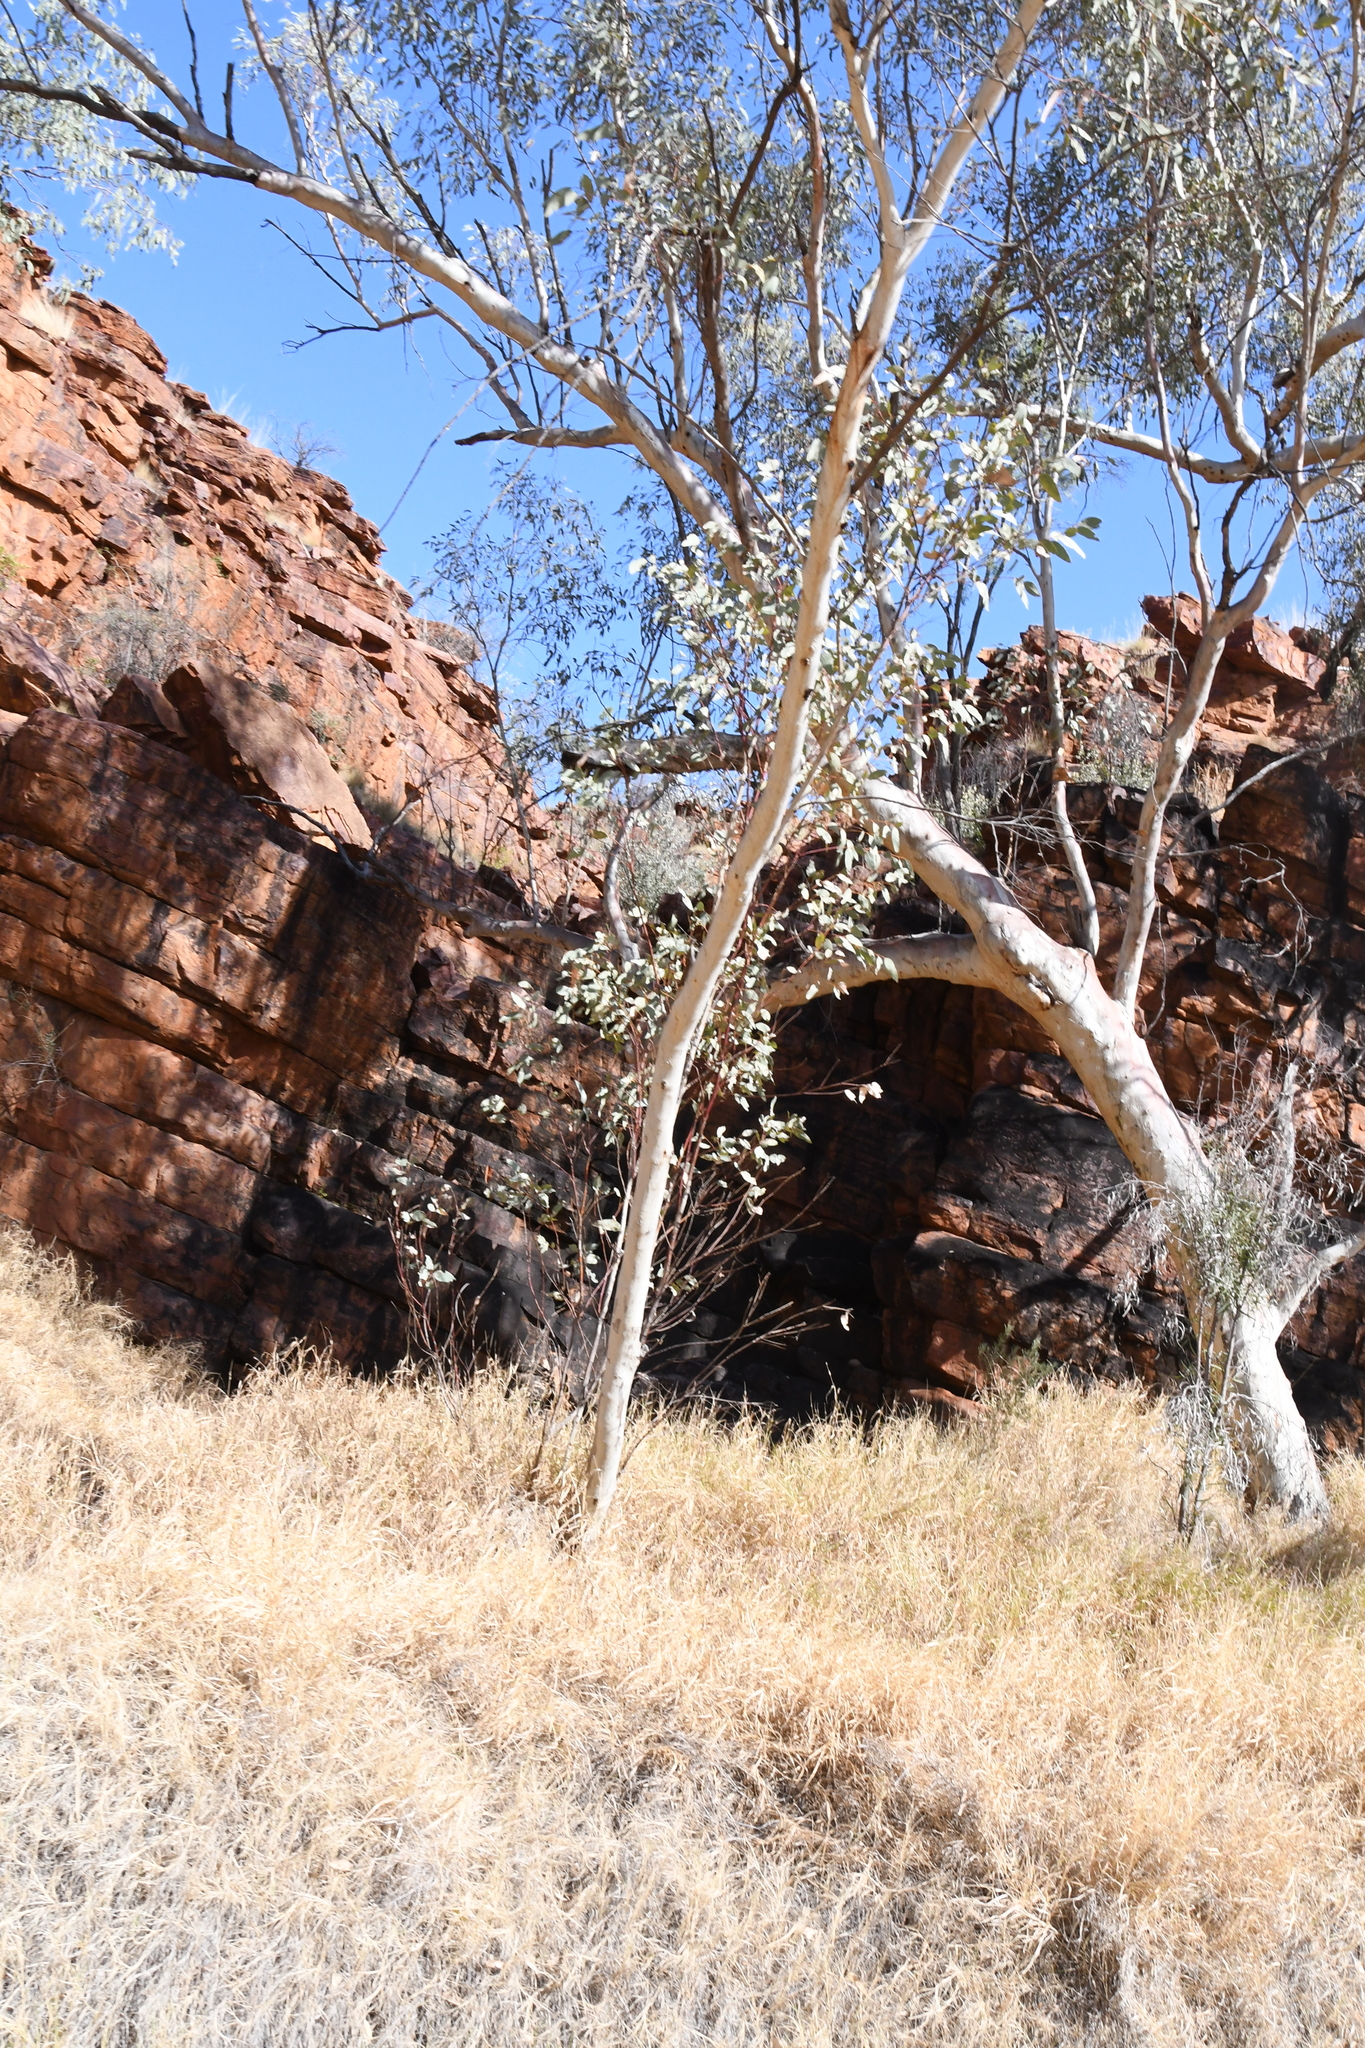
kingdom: Plantae
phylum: Tracheophyta
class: Magnoliopsida
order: Myrtales
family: Myrtaceae
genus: Eucalyptus
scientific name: Eucalyptus camaldulensis
